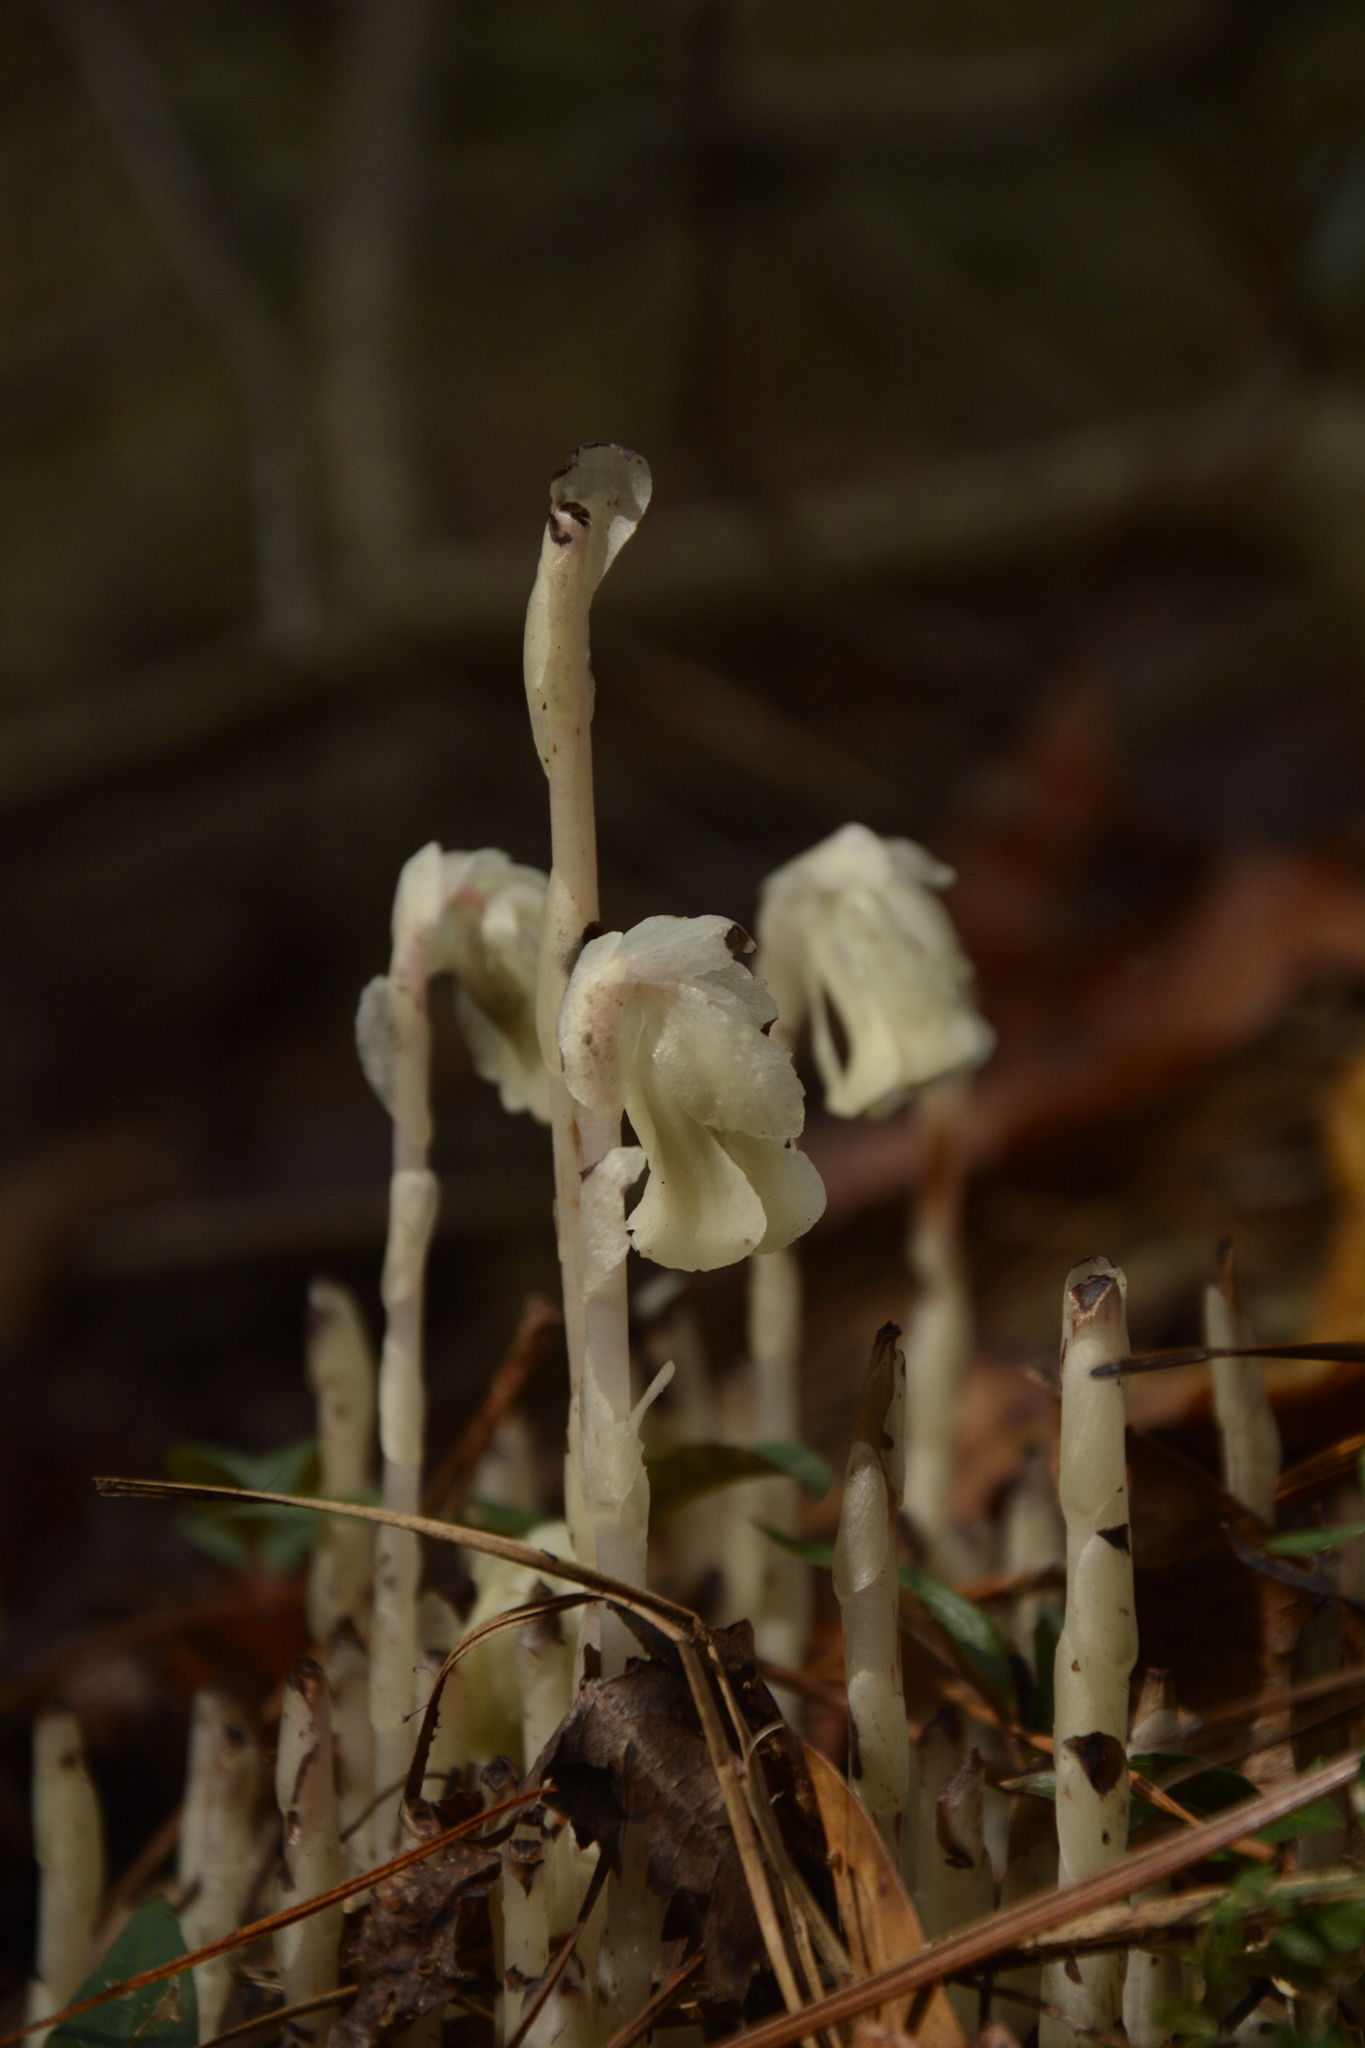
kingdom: Plantae
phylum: Tracheophyta
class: Magnoliopsida
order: Ericales
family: Ericaceae
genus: Monotropa
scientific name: Monotropa uniflora
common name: Convulsion root
